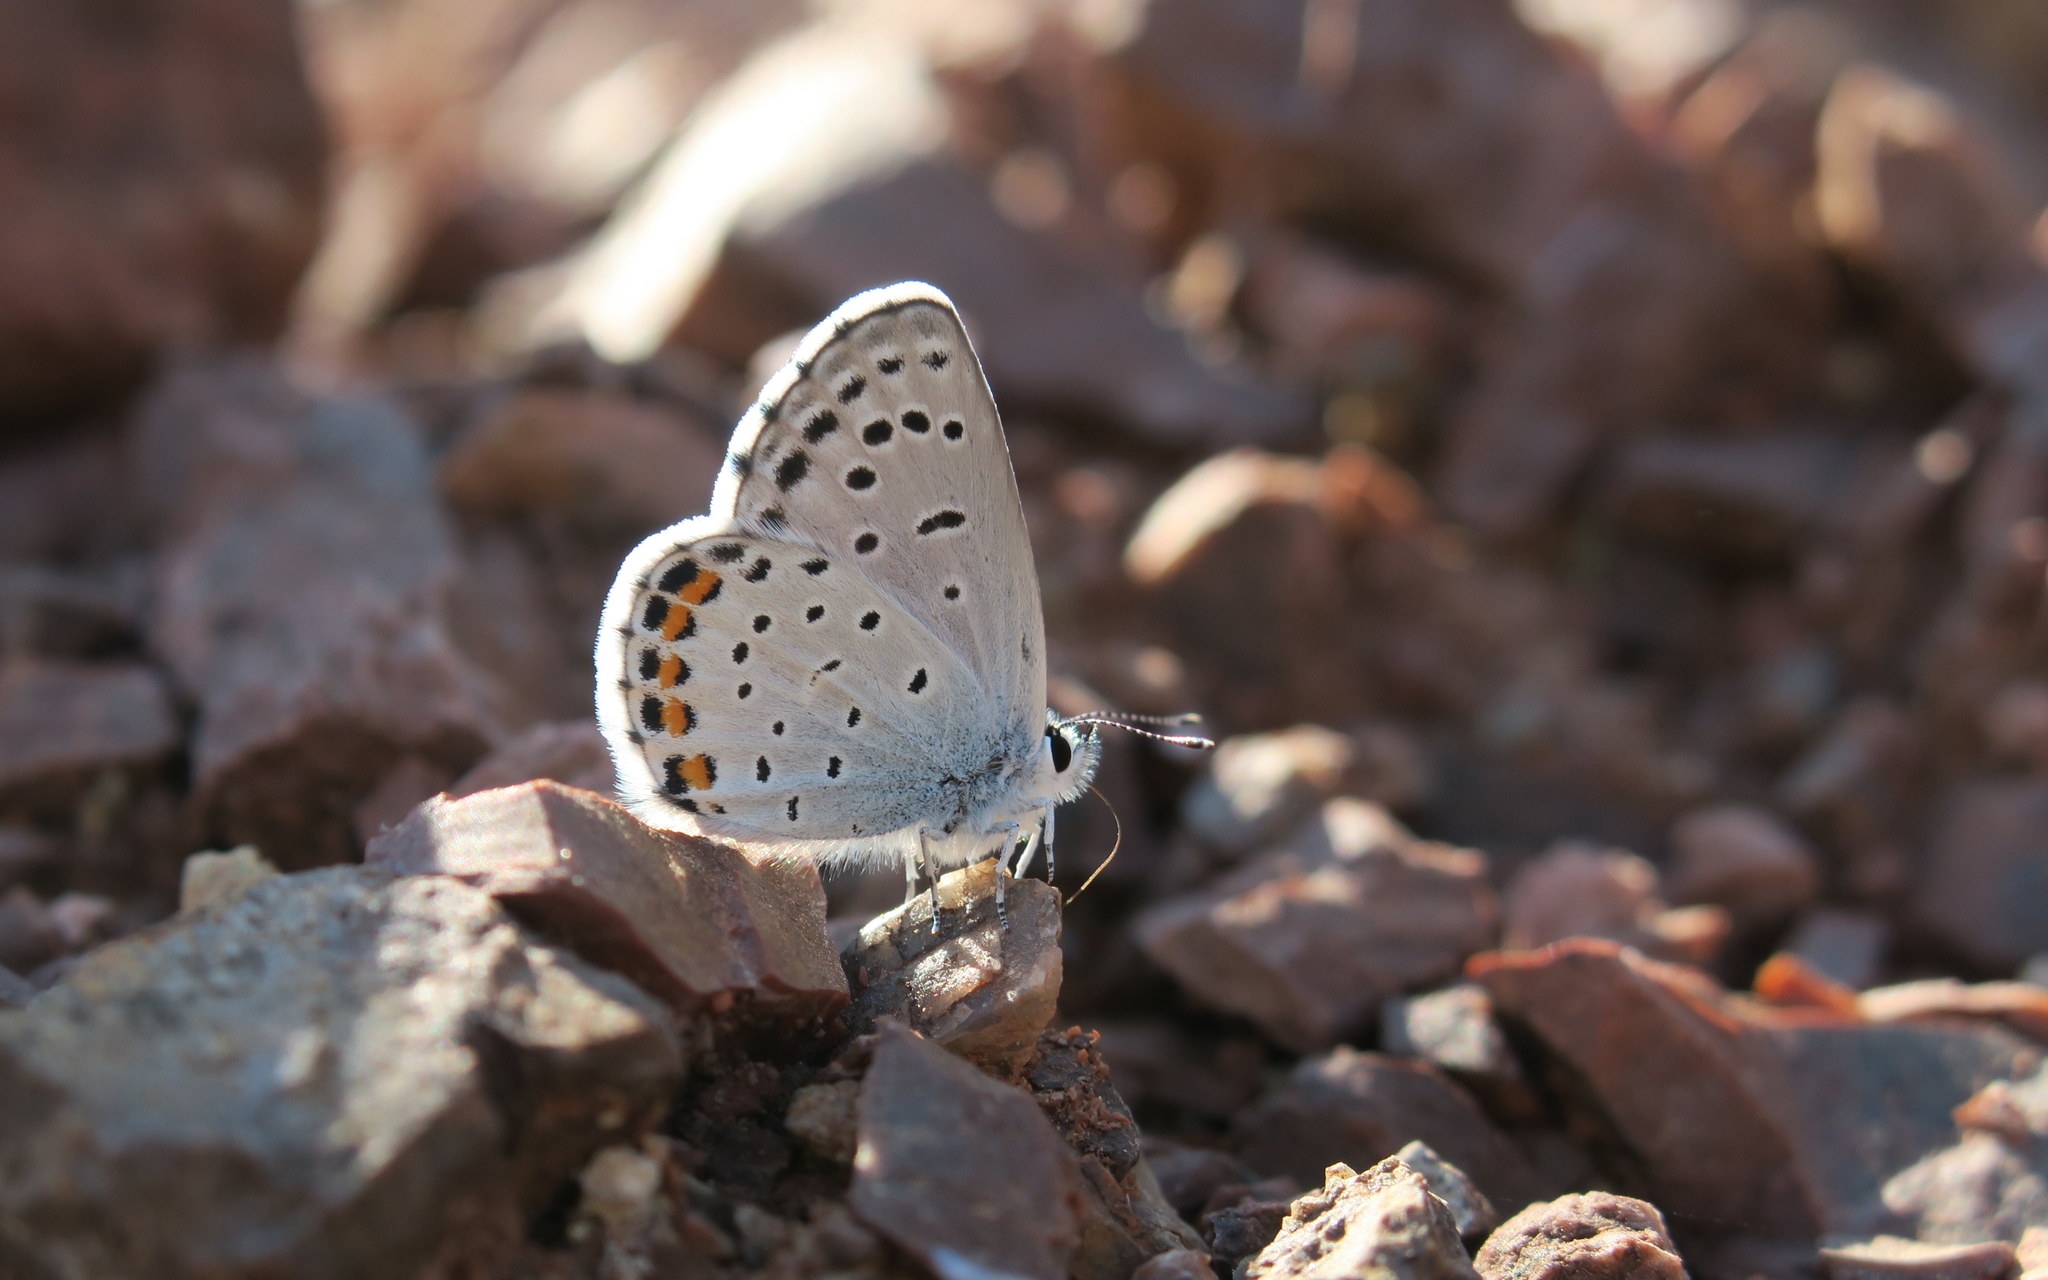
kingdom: Animalia
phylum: Arthropoda
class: Insecta
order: Lepidoptera
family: Lycaenidae
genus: Pseudophilotes
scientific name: Pseudophilotes baton
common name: Baton blue
